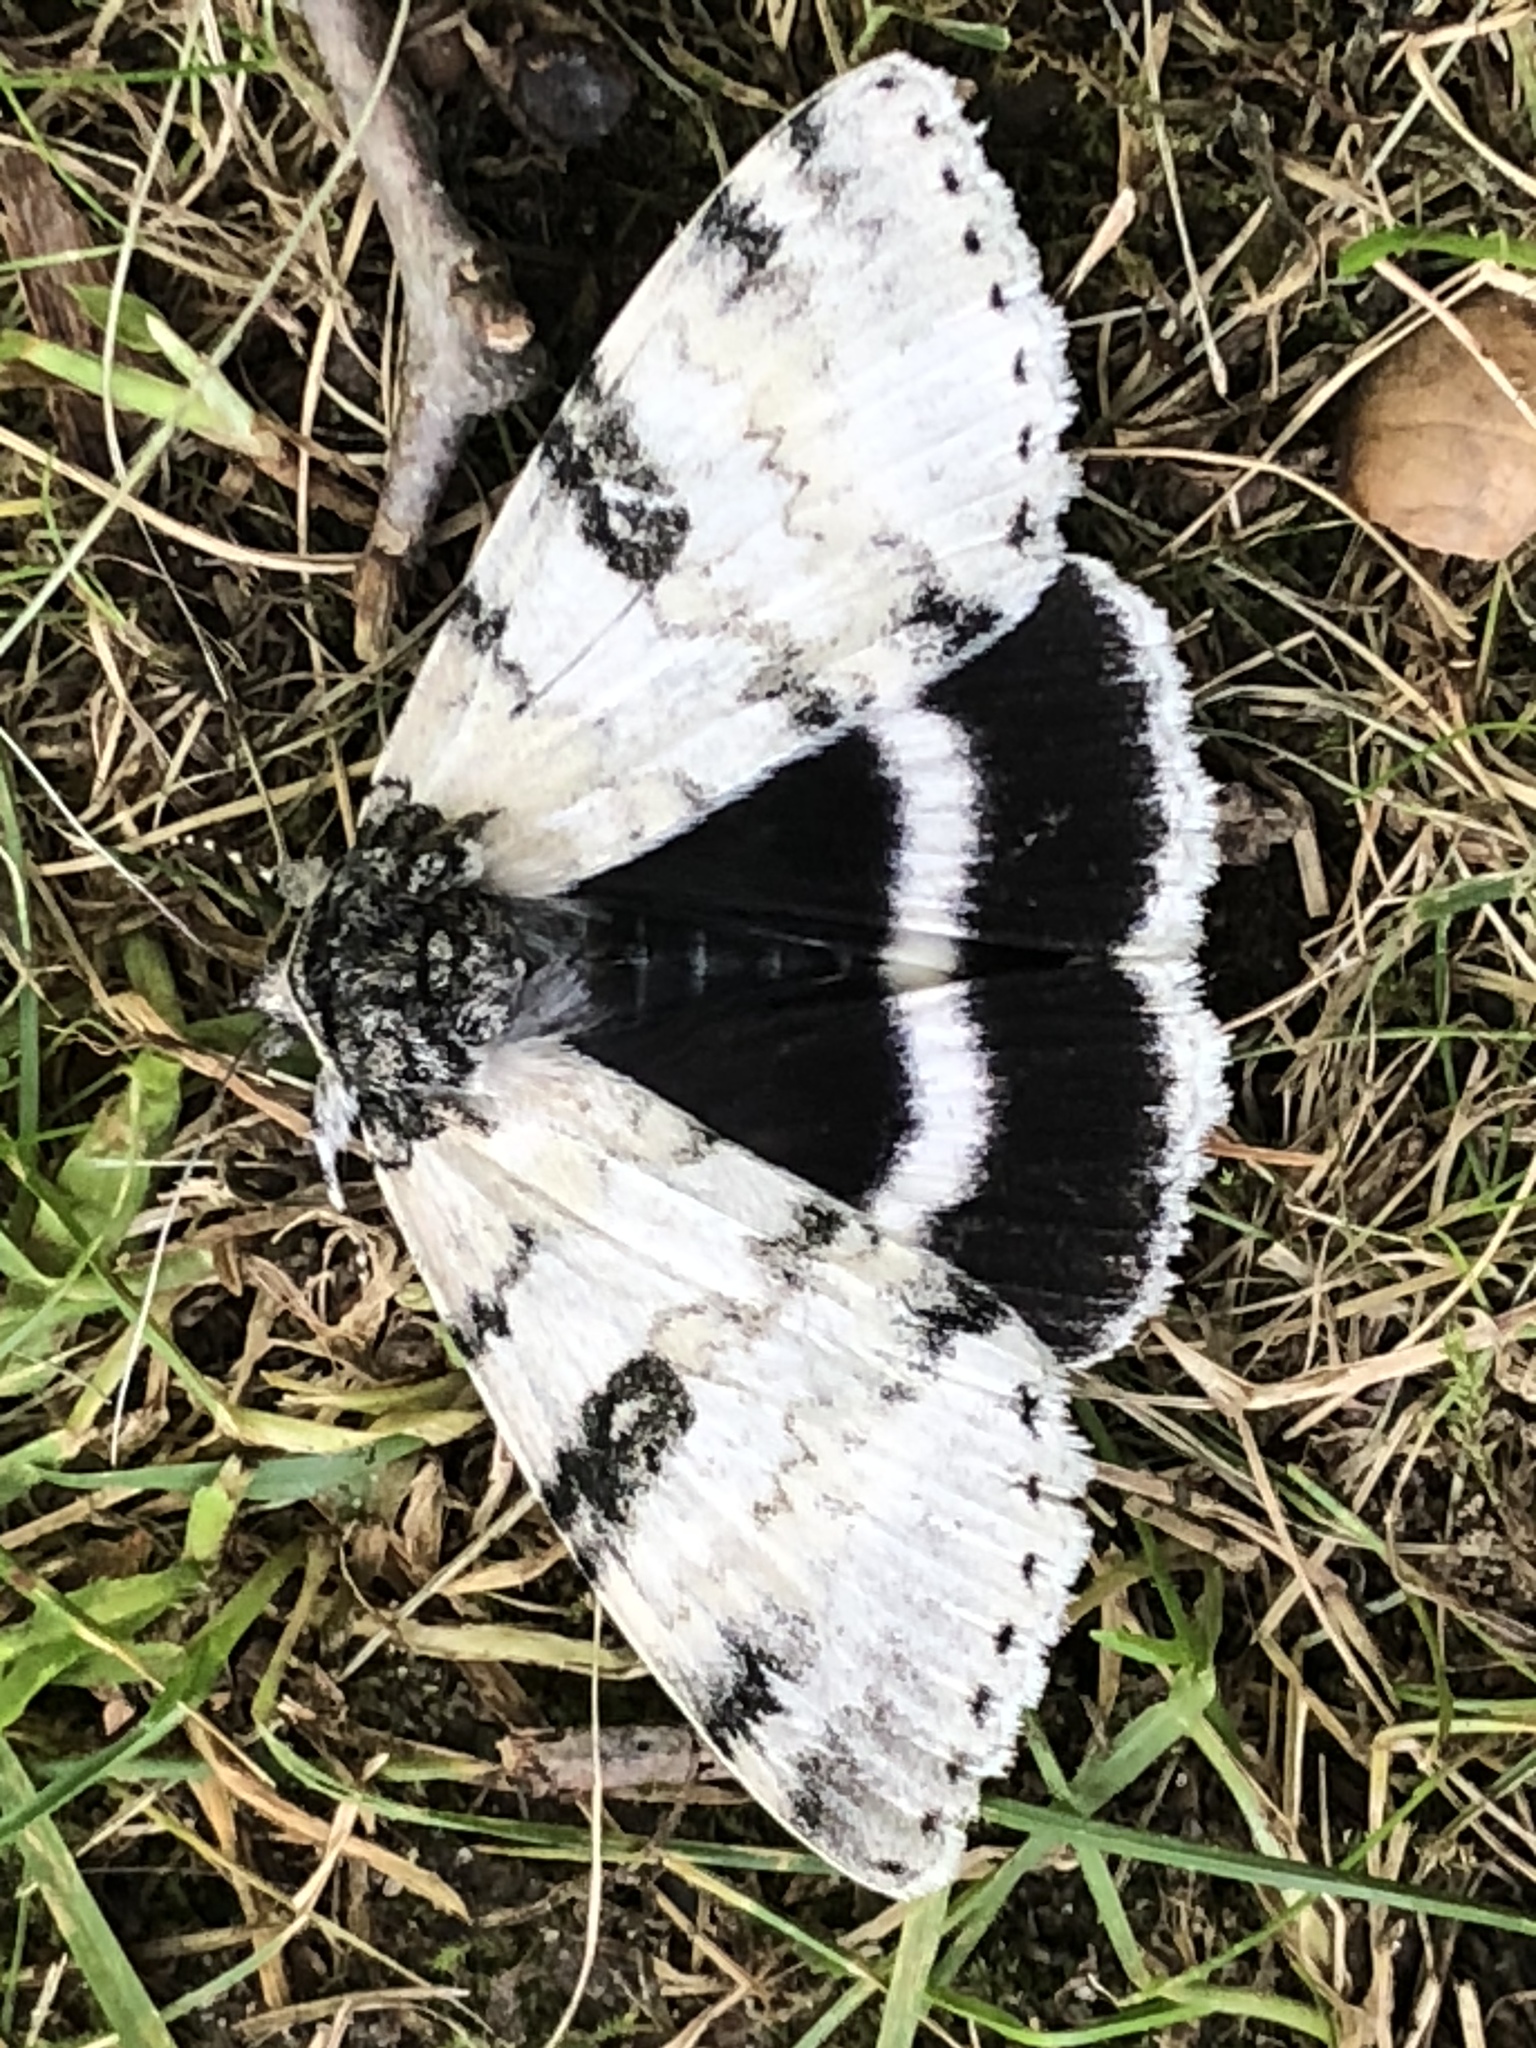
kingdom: Animalia
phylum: Arthropoda
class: Insecta
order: Lepidoptera
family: Erebidae
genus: Catocala
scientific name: Catocala relicta
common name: White underwing
